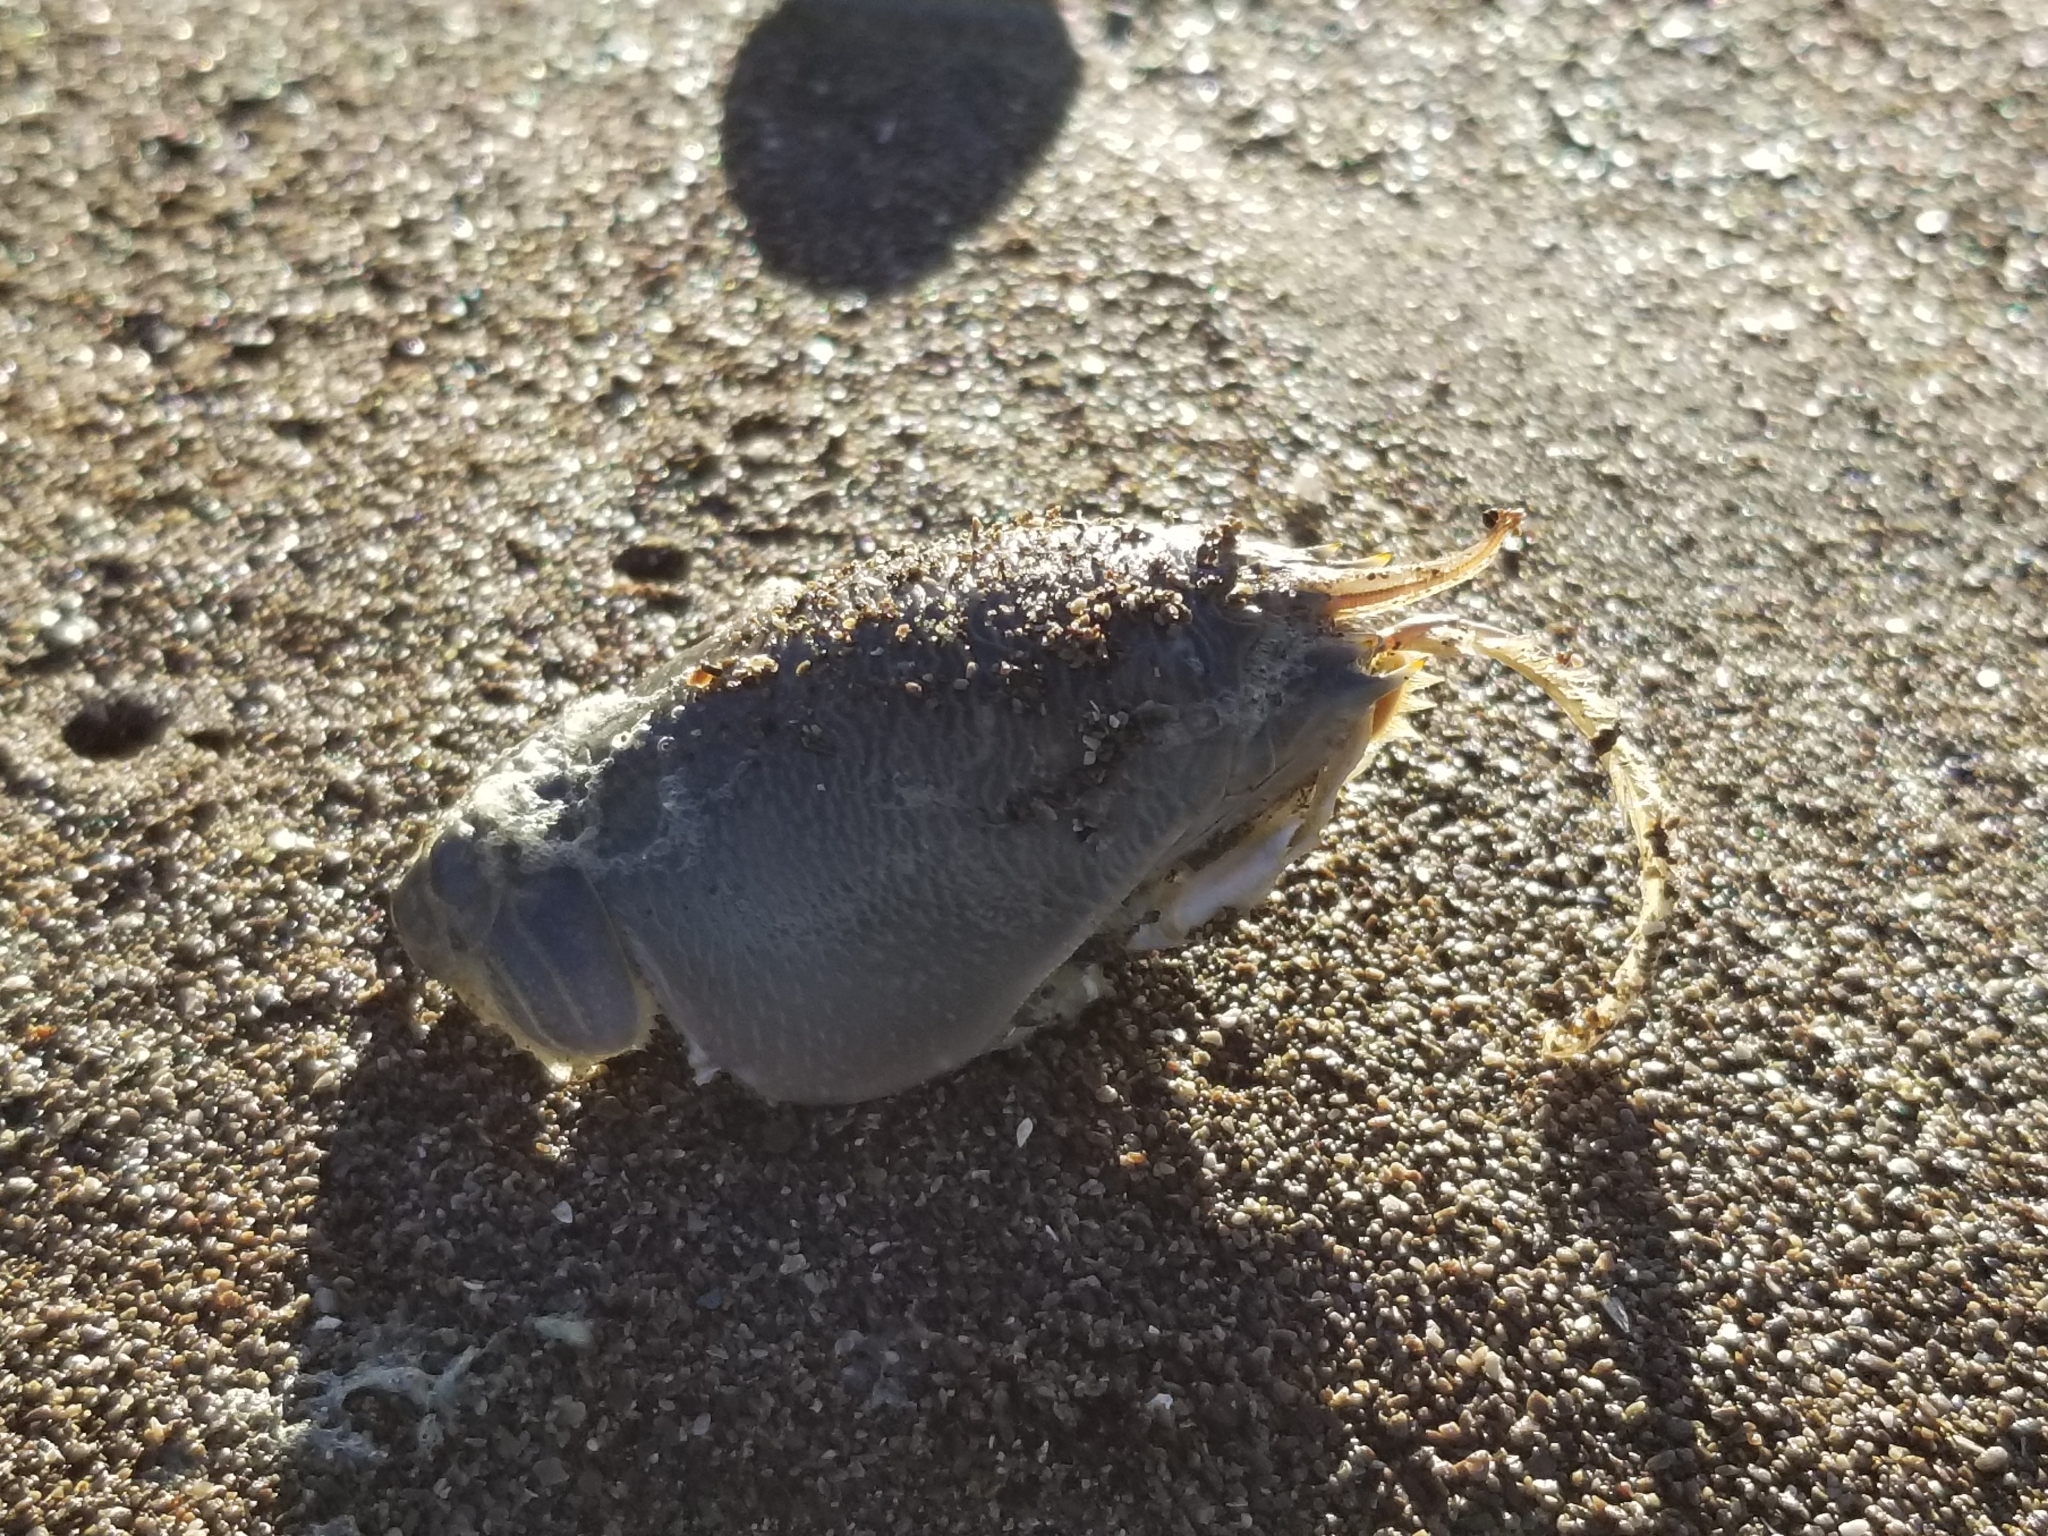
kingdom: Animalia
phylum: Arthropoda
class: Malacostraca
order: Decapoda
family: Hippidae
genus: Emerita
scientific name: Emerita analoga
